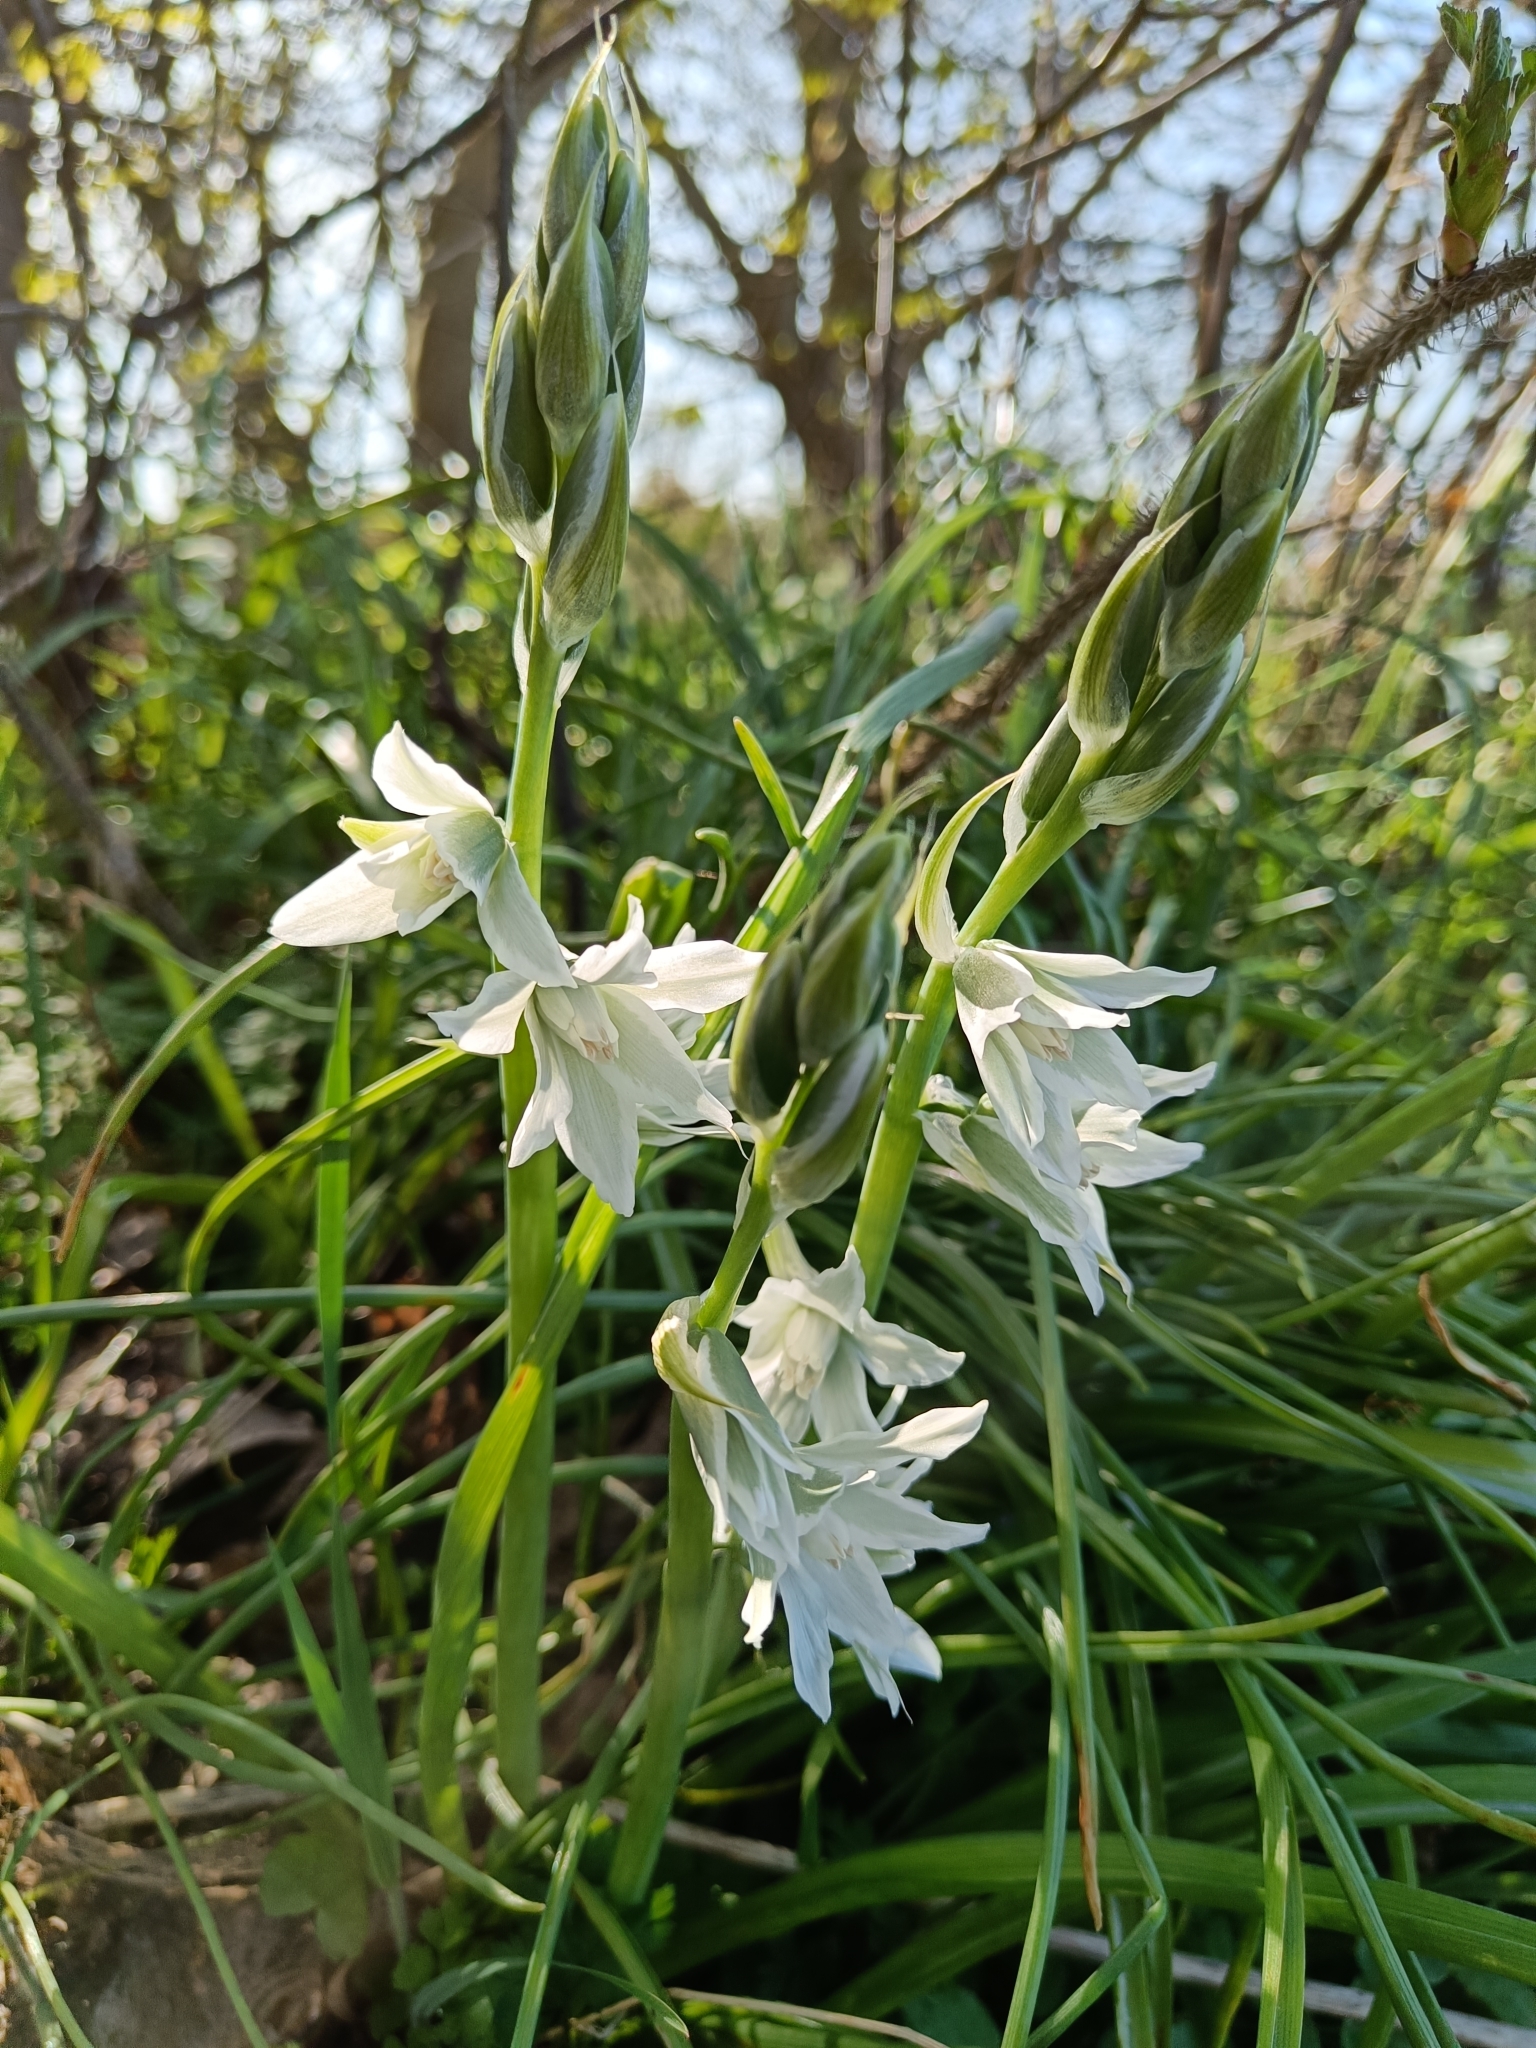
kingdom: Plantae
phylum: Tracheophyta
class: Liliopsida
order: Asparagales
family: Asparagaceae
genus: Ornithogalum
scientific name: Ornithogalum nutans
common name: Drooping star-of-bethlehem
